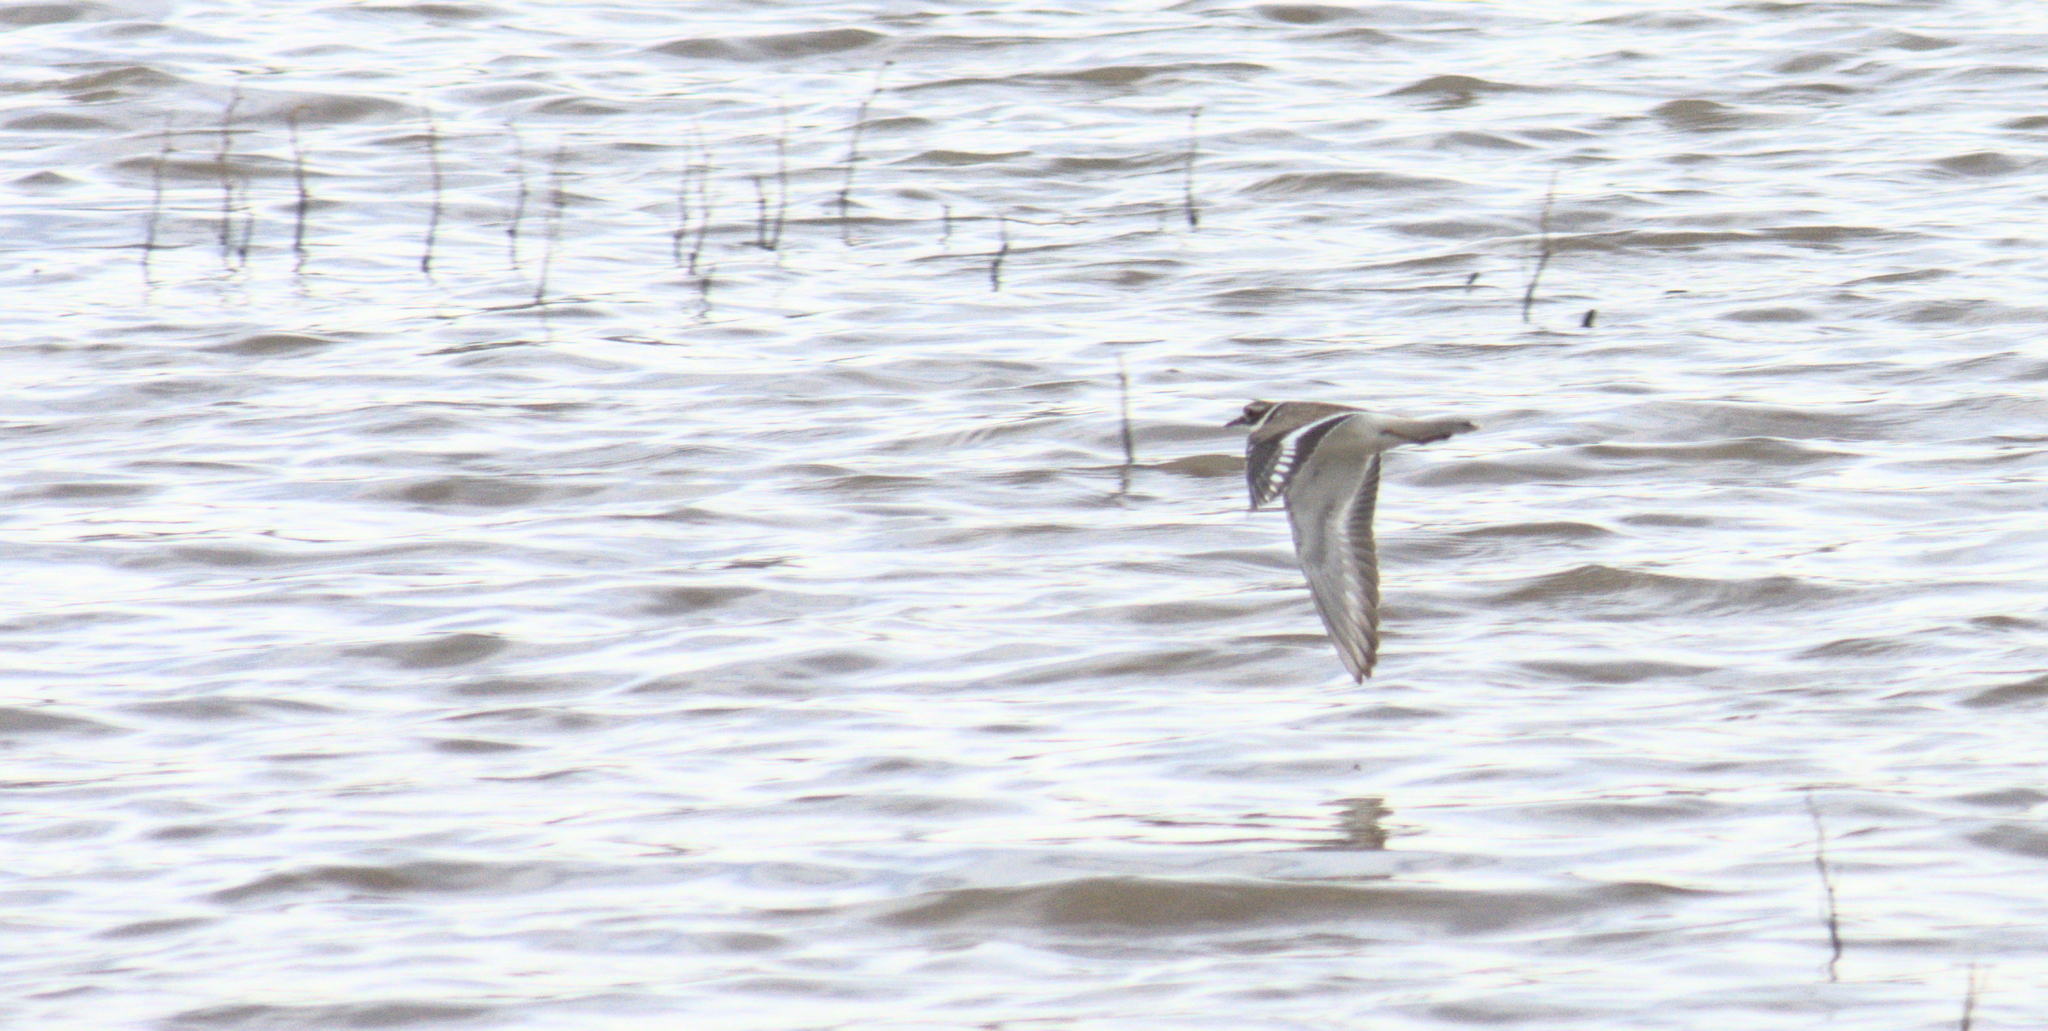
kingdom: Animalia
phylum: Chordata
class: Aves
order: Charadriiformes
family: Charadriidae
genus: Charadrius
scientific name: Charadrius vociferus
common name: Killdeer
